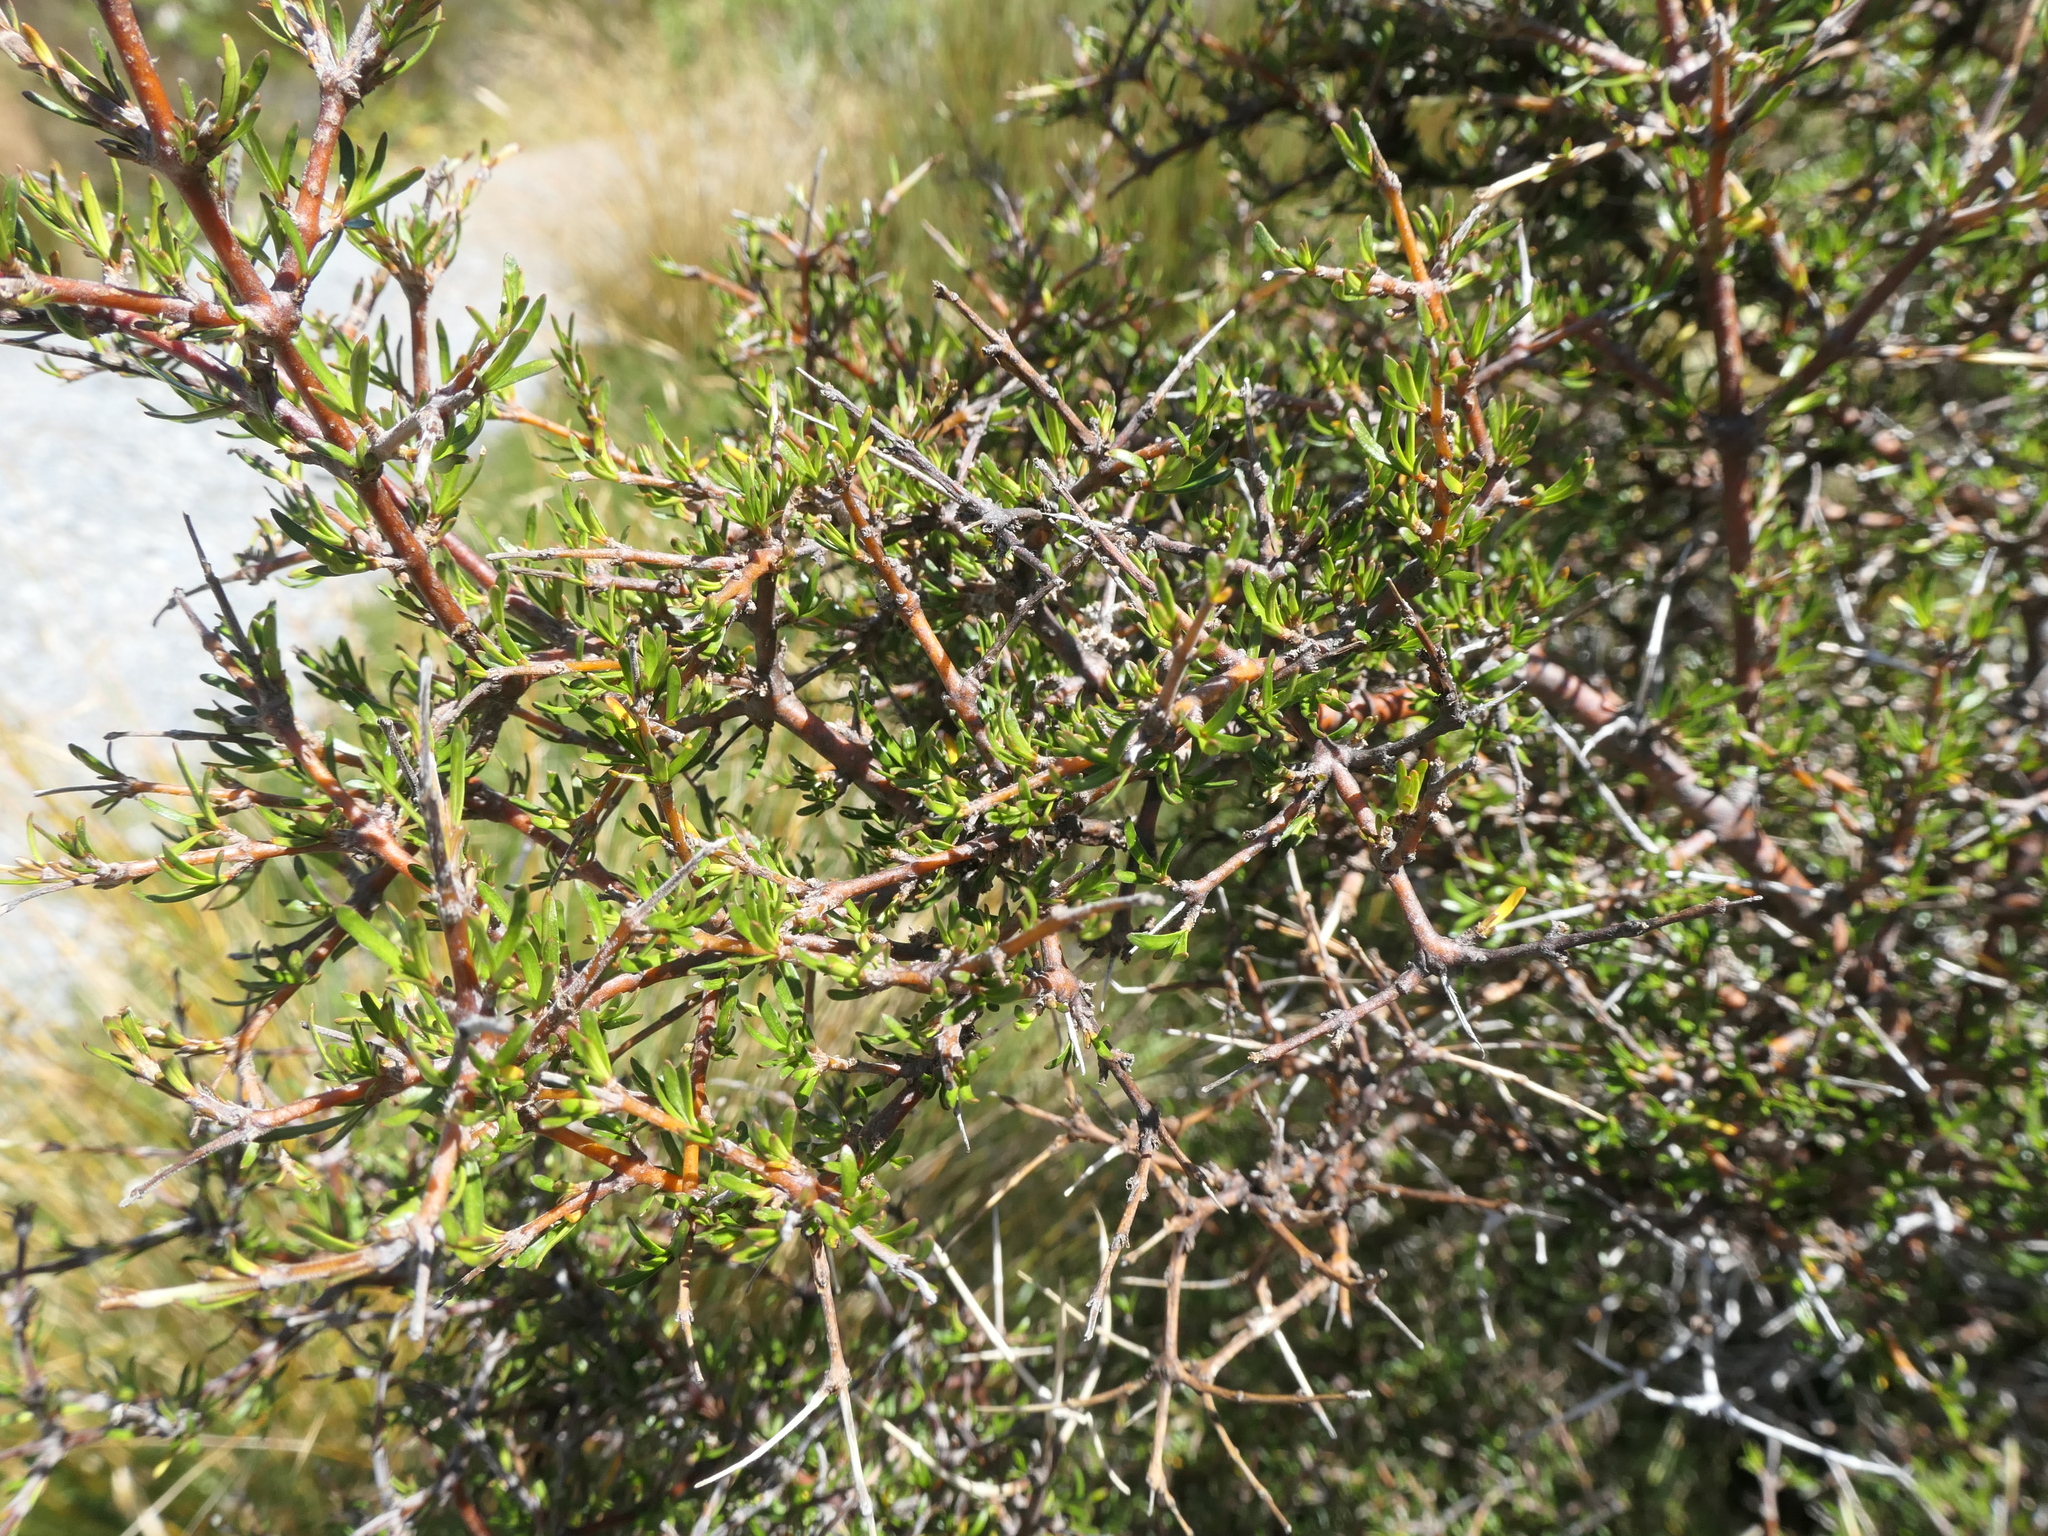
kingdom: Plantae
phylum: Tracheophyta
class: Magnoliopsida
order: Gentianales
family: Rubiaceae
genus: Coprosma
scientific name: Coprosma rugosa
